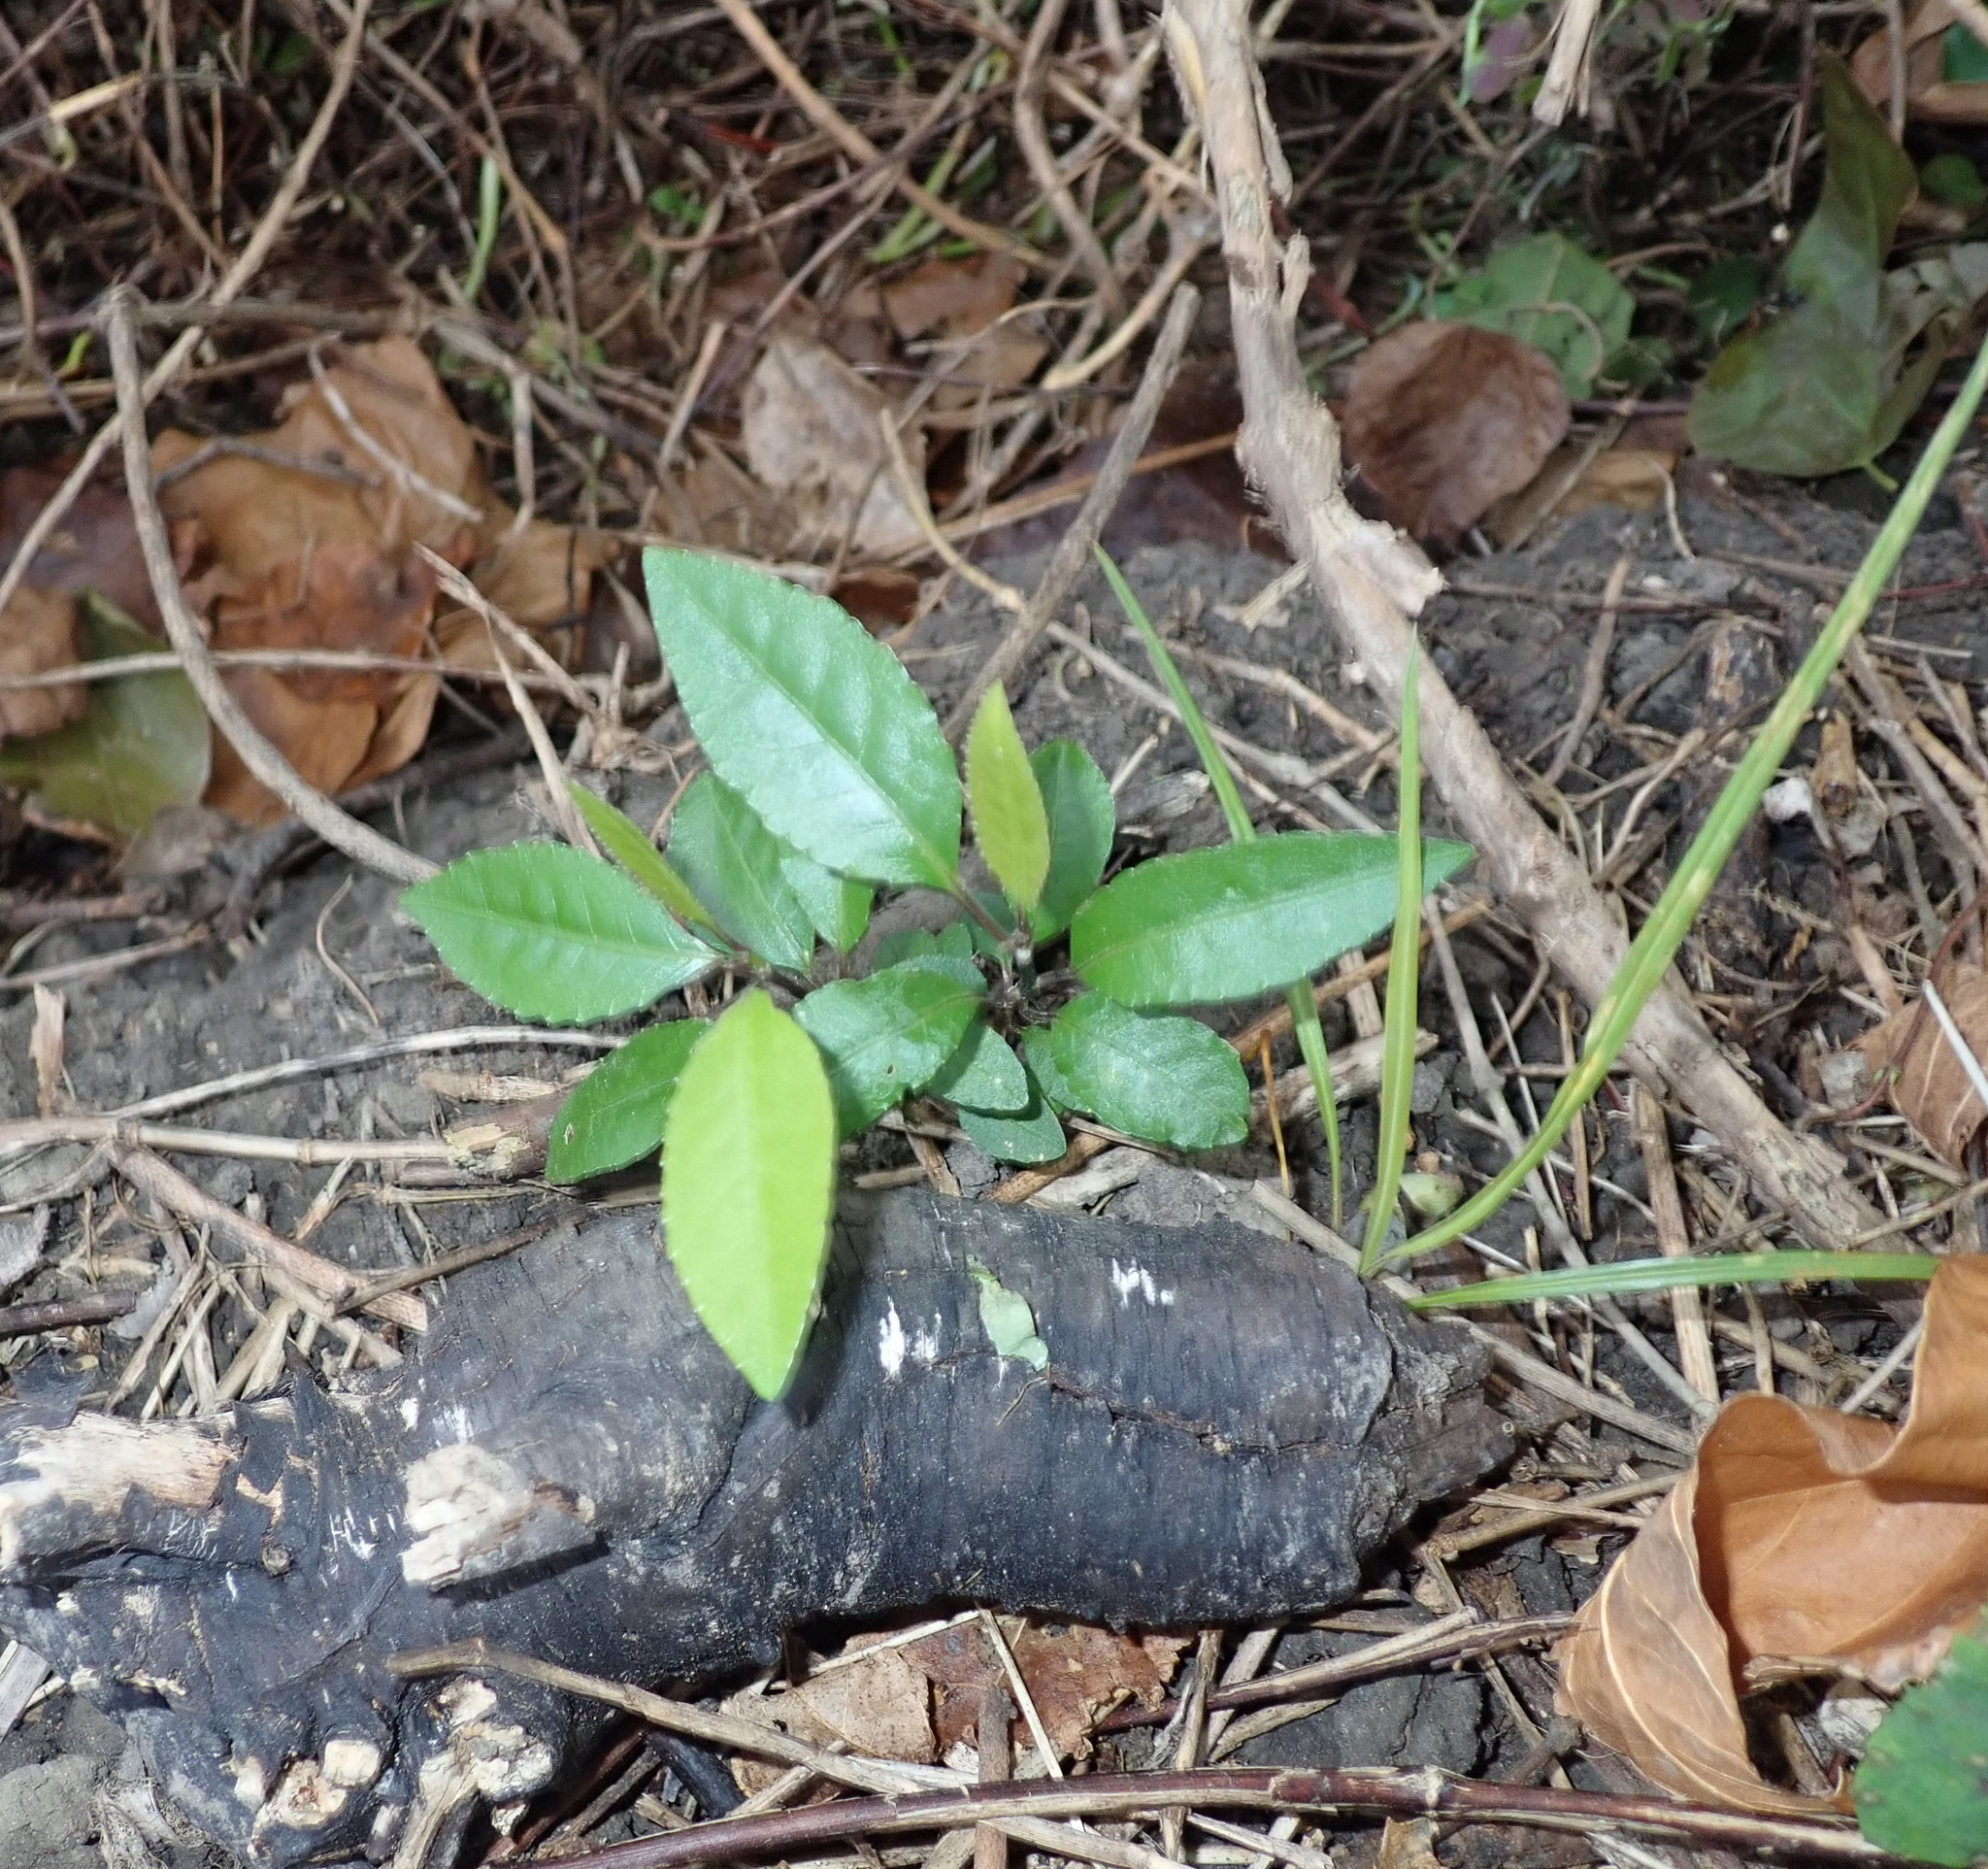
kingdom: Plantae
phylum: Tracheophyta
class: Magnoliopsida
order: Malpighiales
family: Violaceae
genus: Melicytus
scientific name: Melicytus ramiflorus
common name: Mahoe
